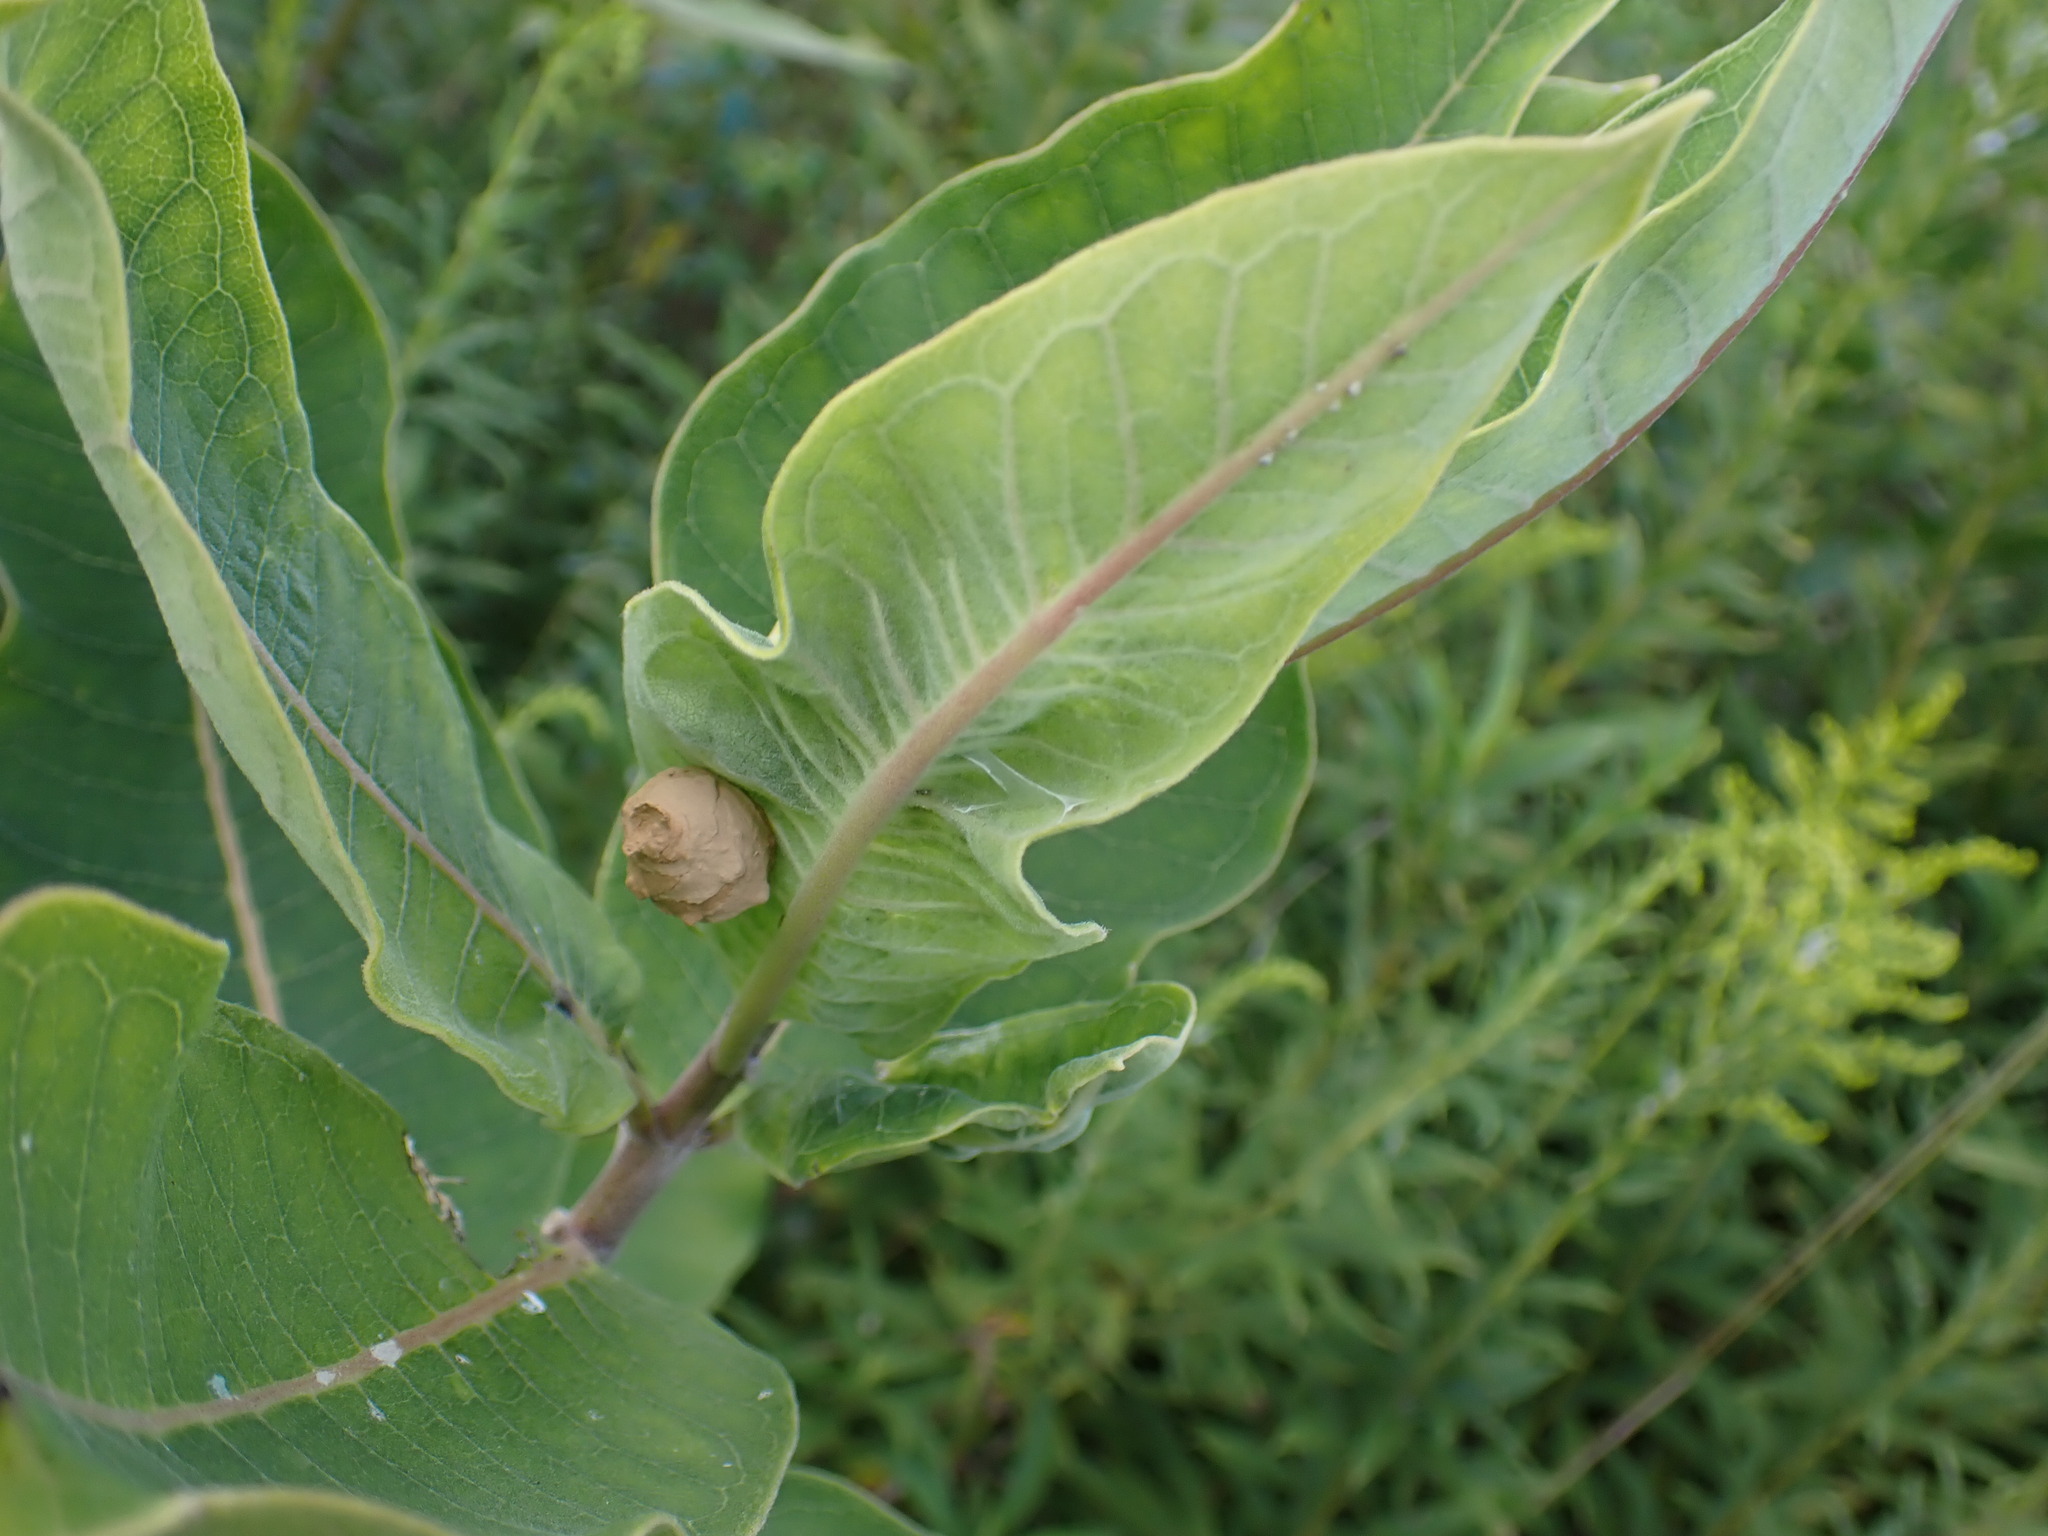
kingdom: Animalia
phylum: Arthropoda
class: Insecta
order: Hymenoptera
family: Vespidae
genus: Eumenes
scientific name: Eumenes
